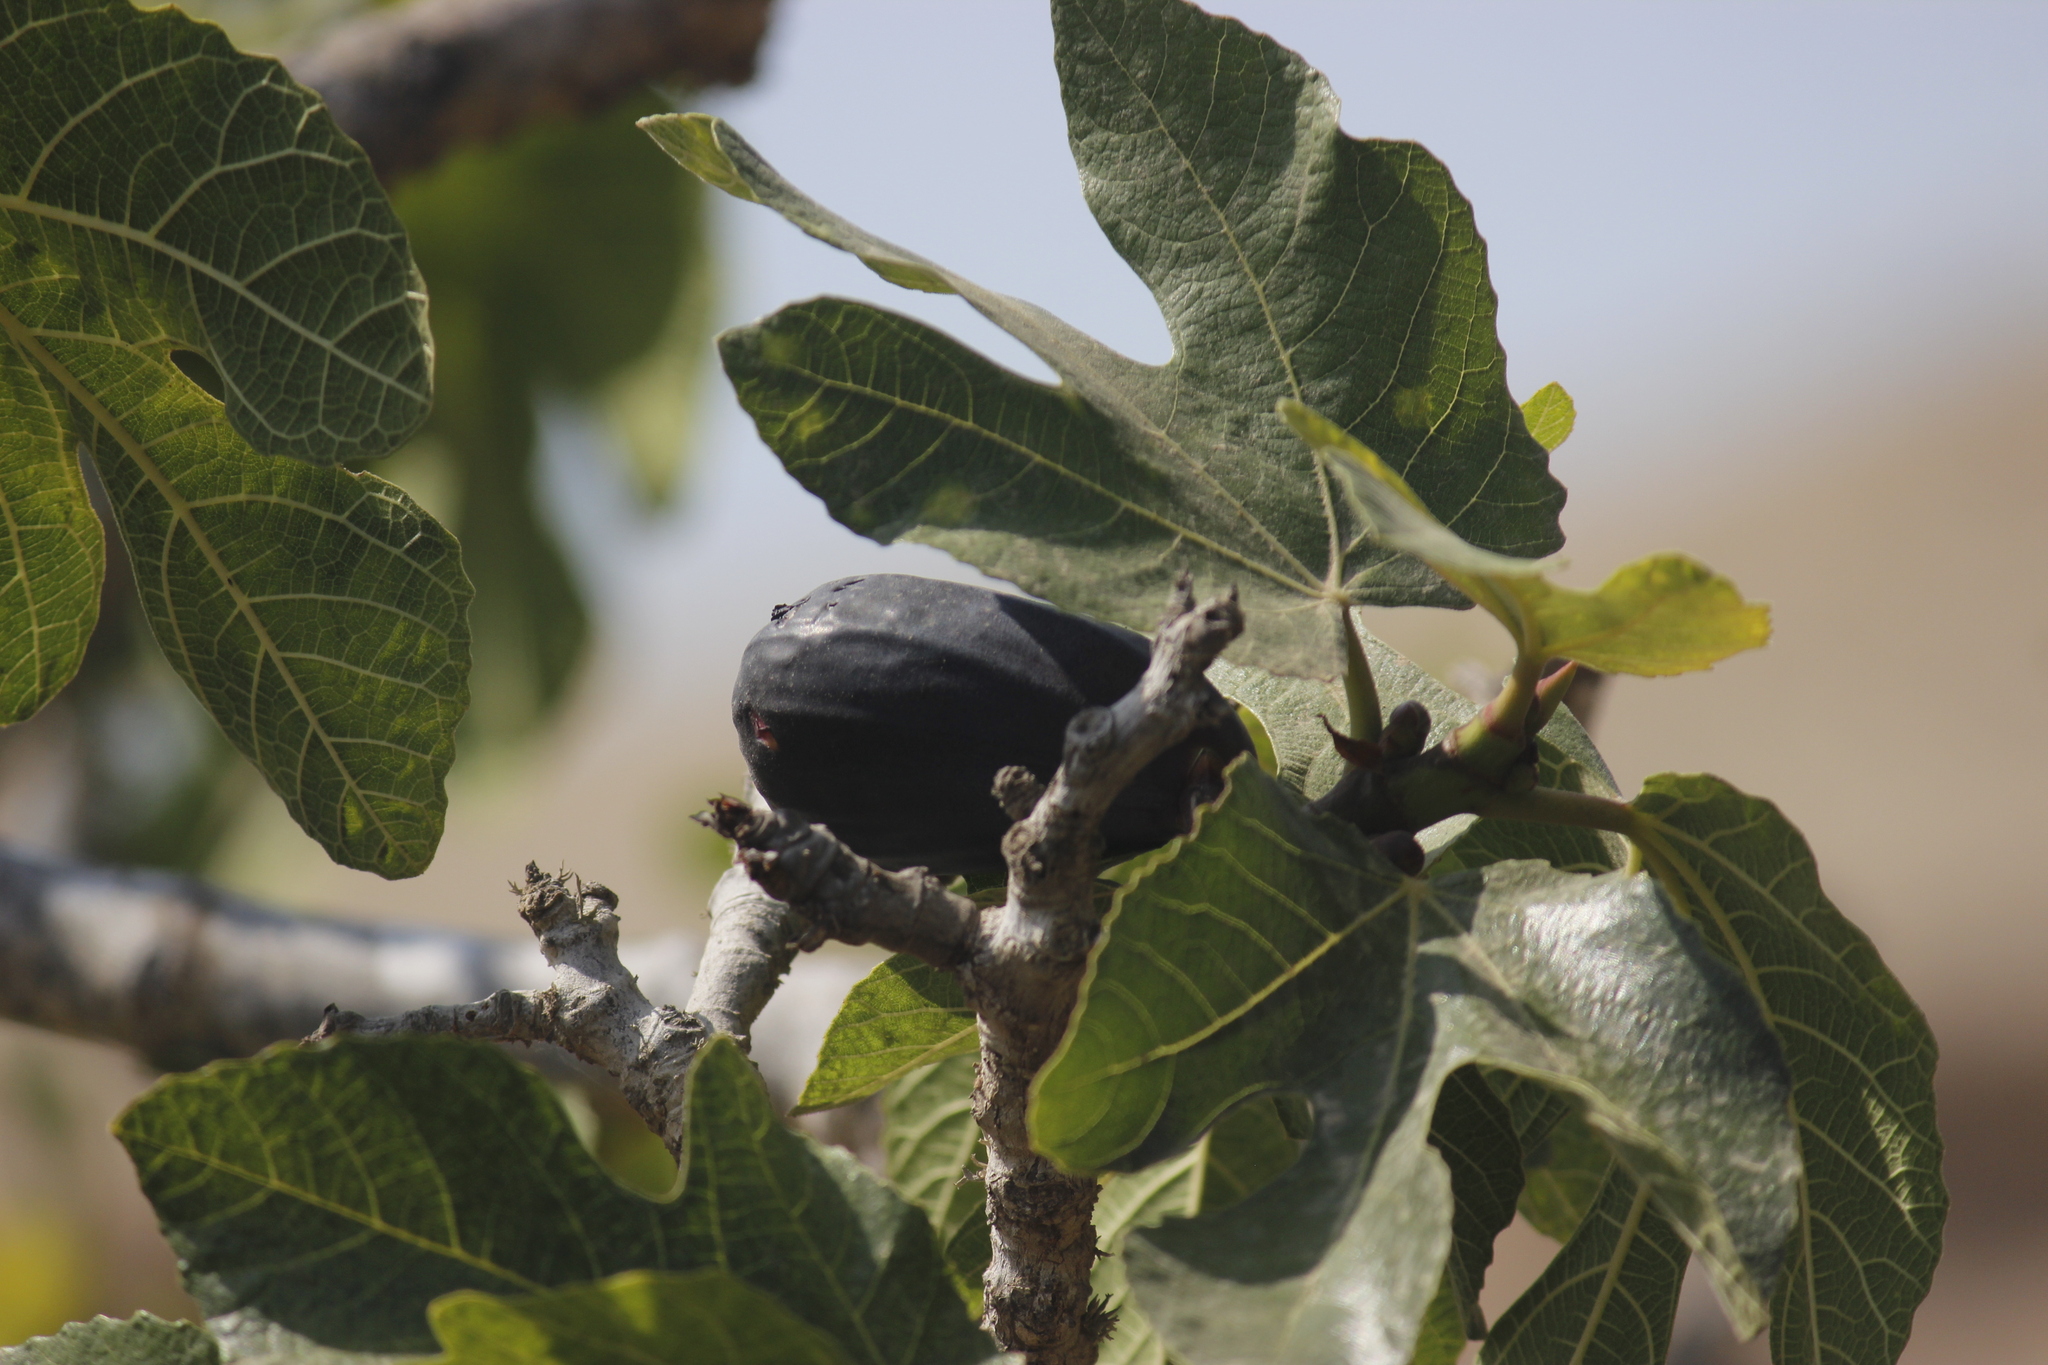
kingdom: Plantae
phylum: Tracheophyta
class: Magnoliopsida
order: Rosales
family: Moraceae
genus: Ficus
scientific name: Ficus carica
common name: Fig
